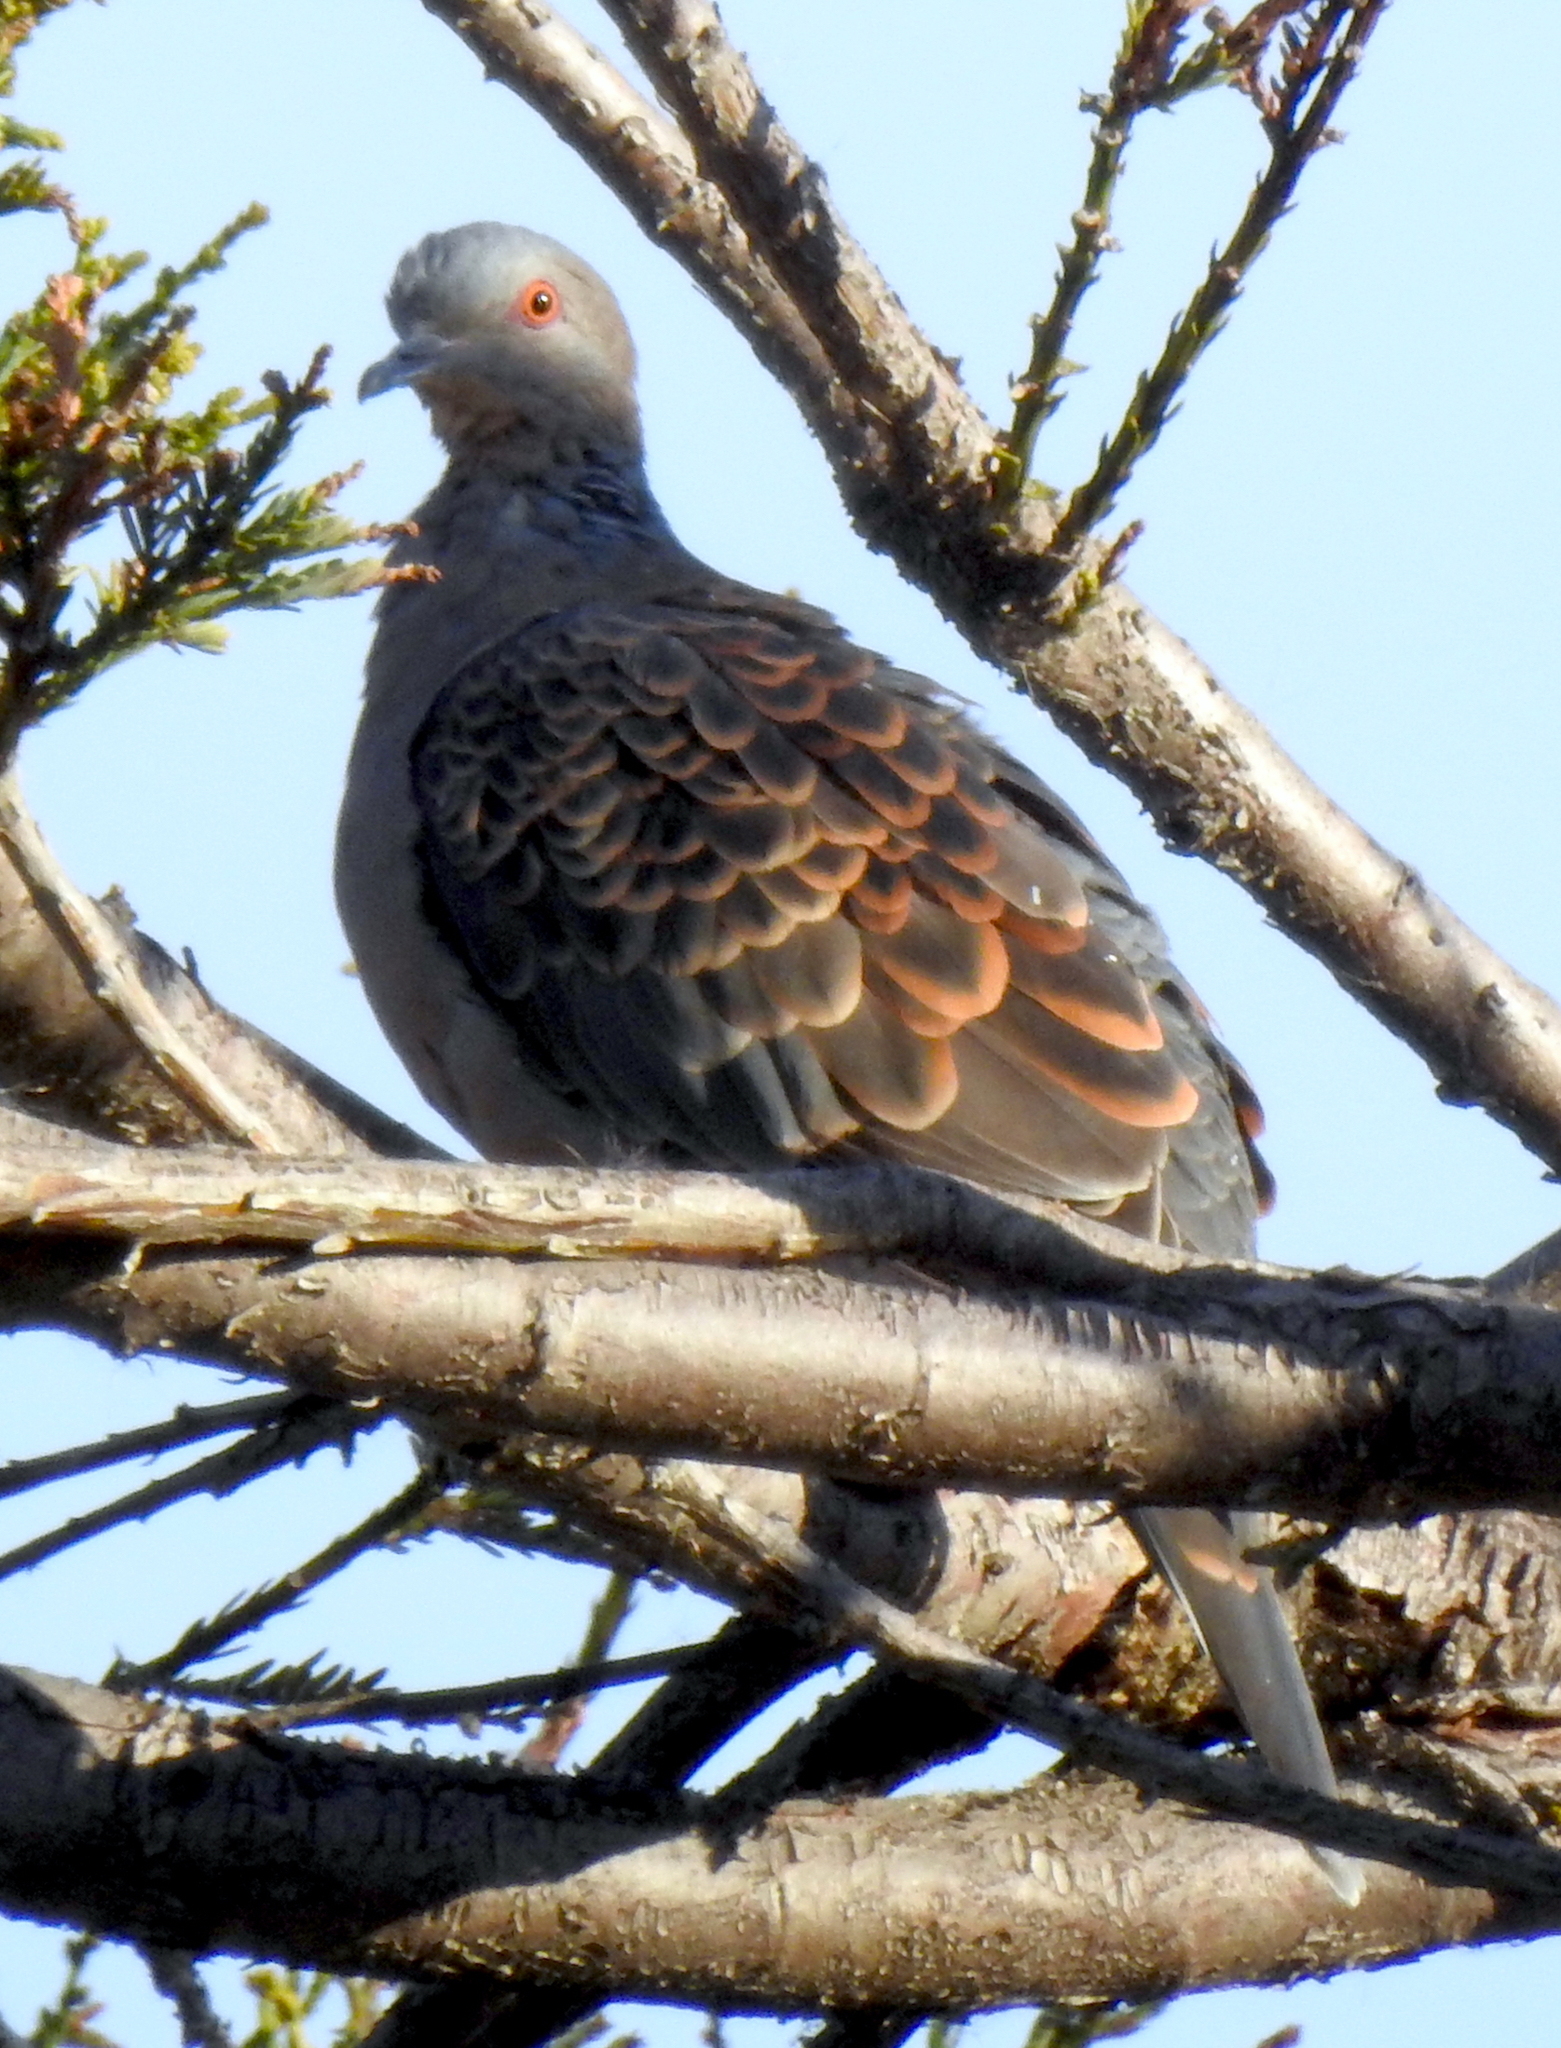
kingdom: Animalia
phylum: Chordata
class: Aves
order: Columbiformes
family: Columbidae
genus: Streptopelia
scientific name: Streptopelia orientalis
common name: Oriental turtle dove
